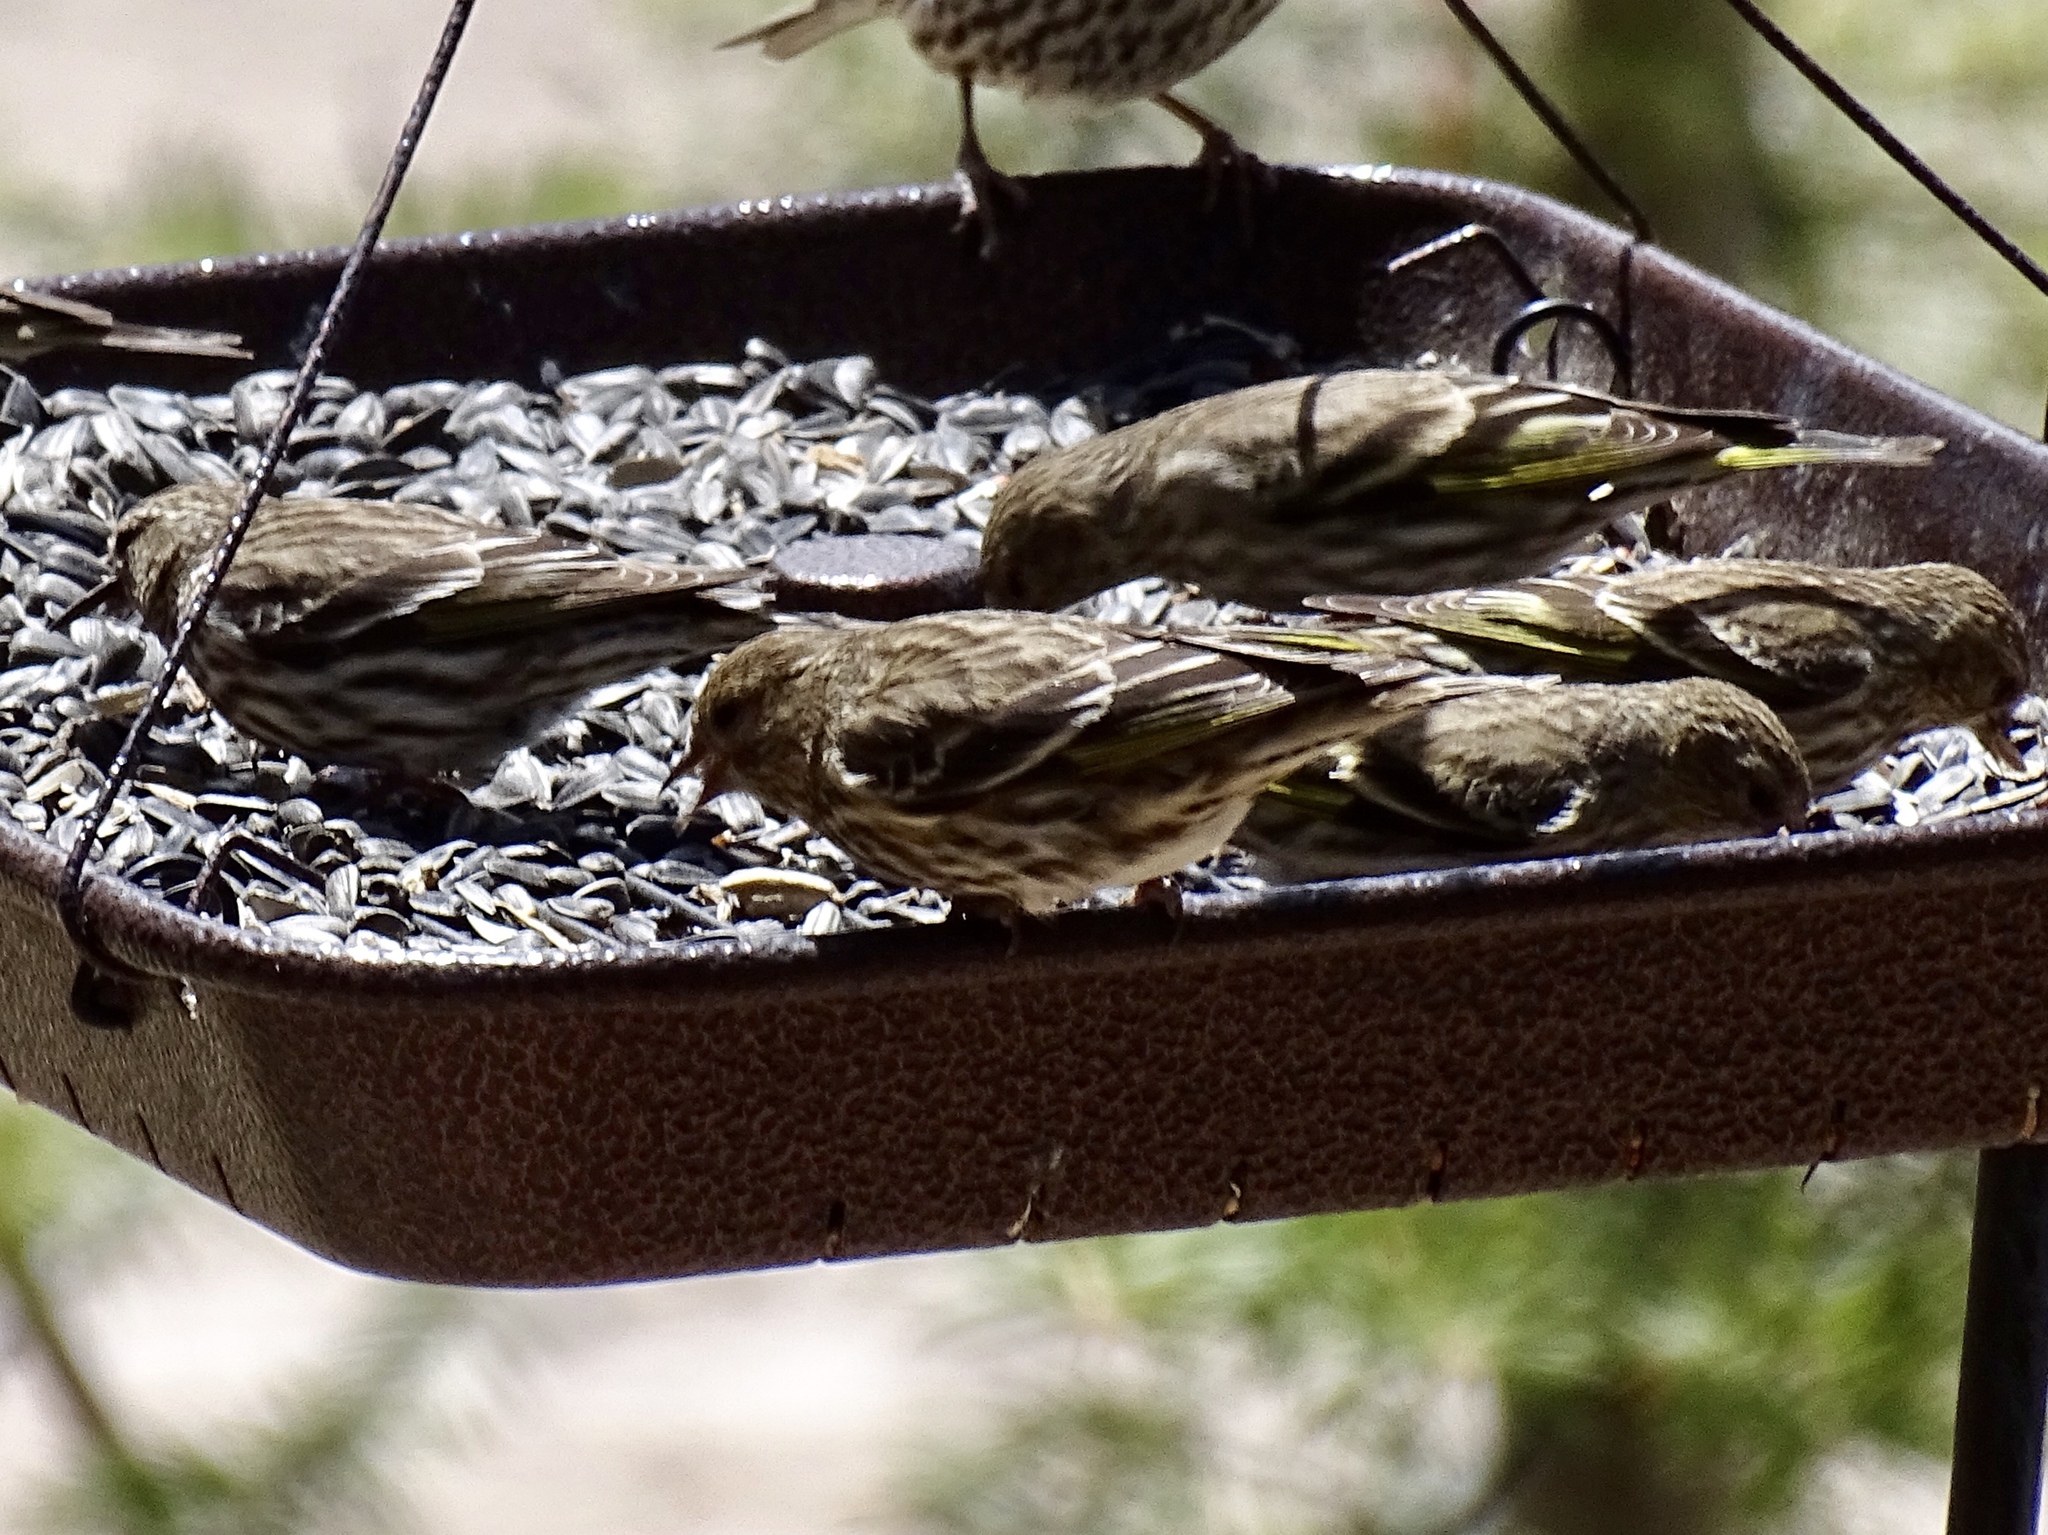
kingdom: Animalia
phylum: Chordata
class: Aves
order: Passeriformes
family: Fringillidae
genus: Spinus
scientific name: Spinus pinus
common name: Pine siskin
